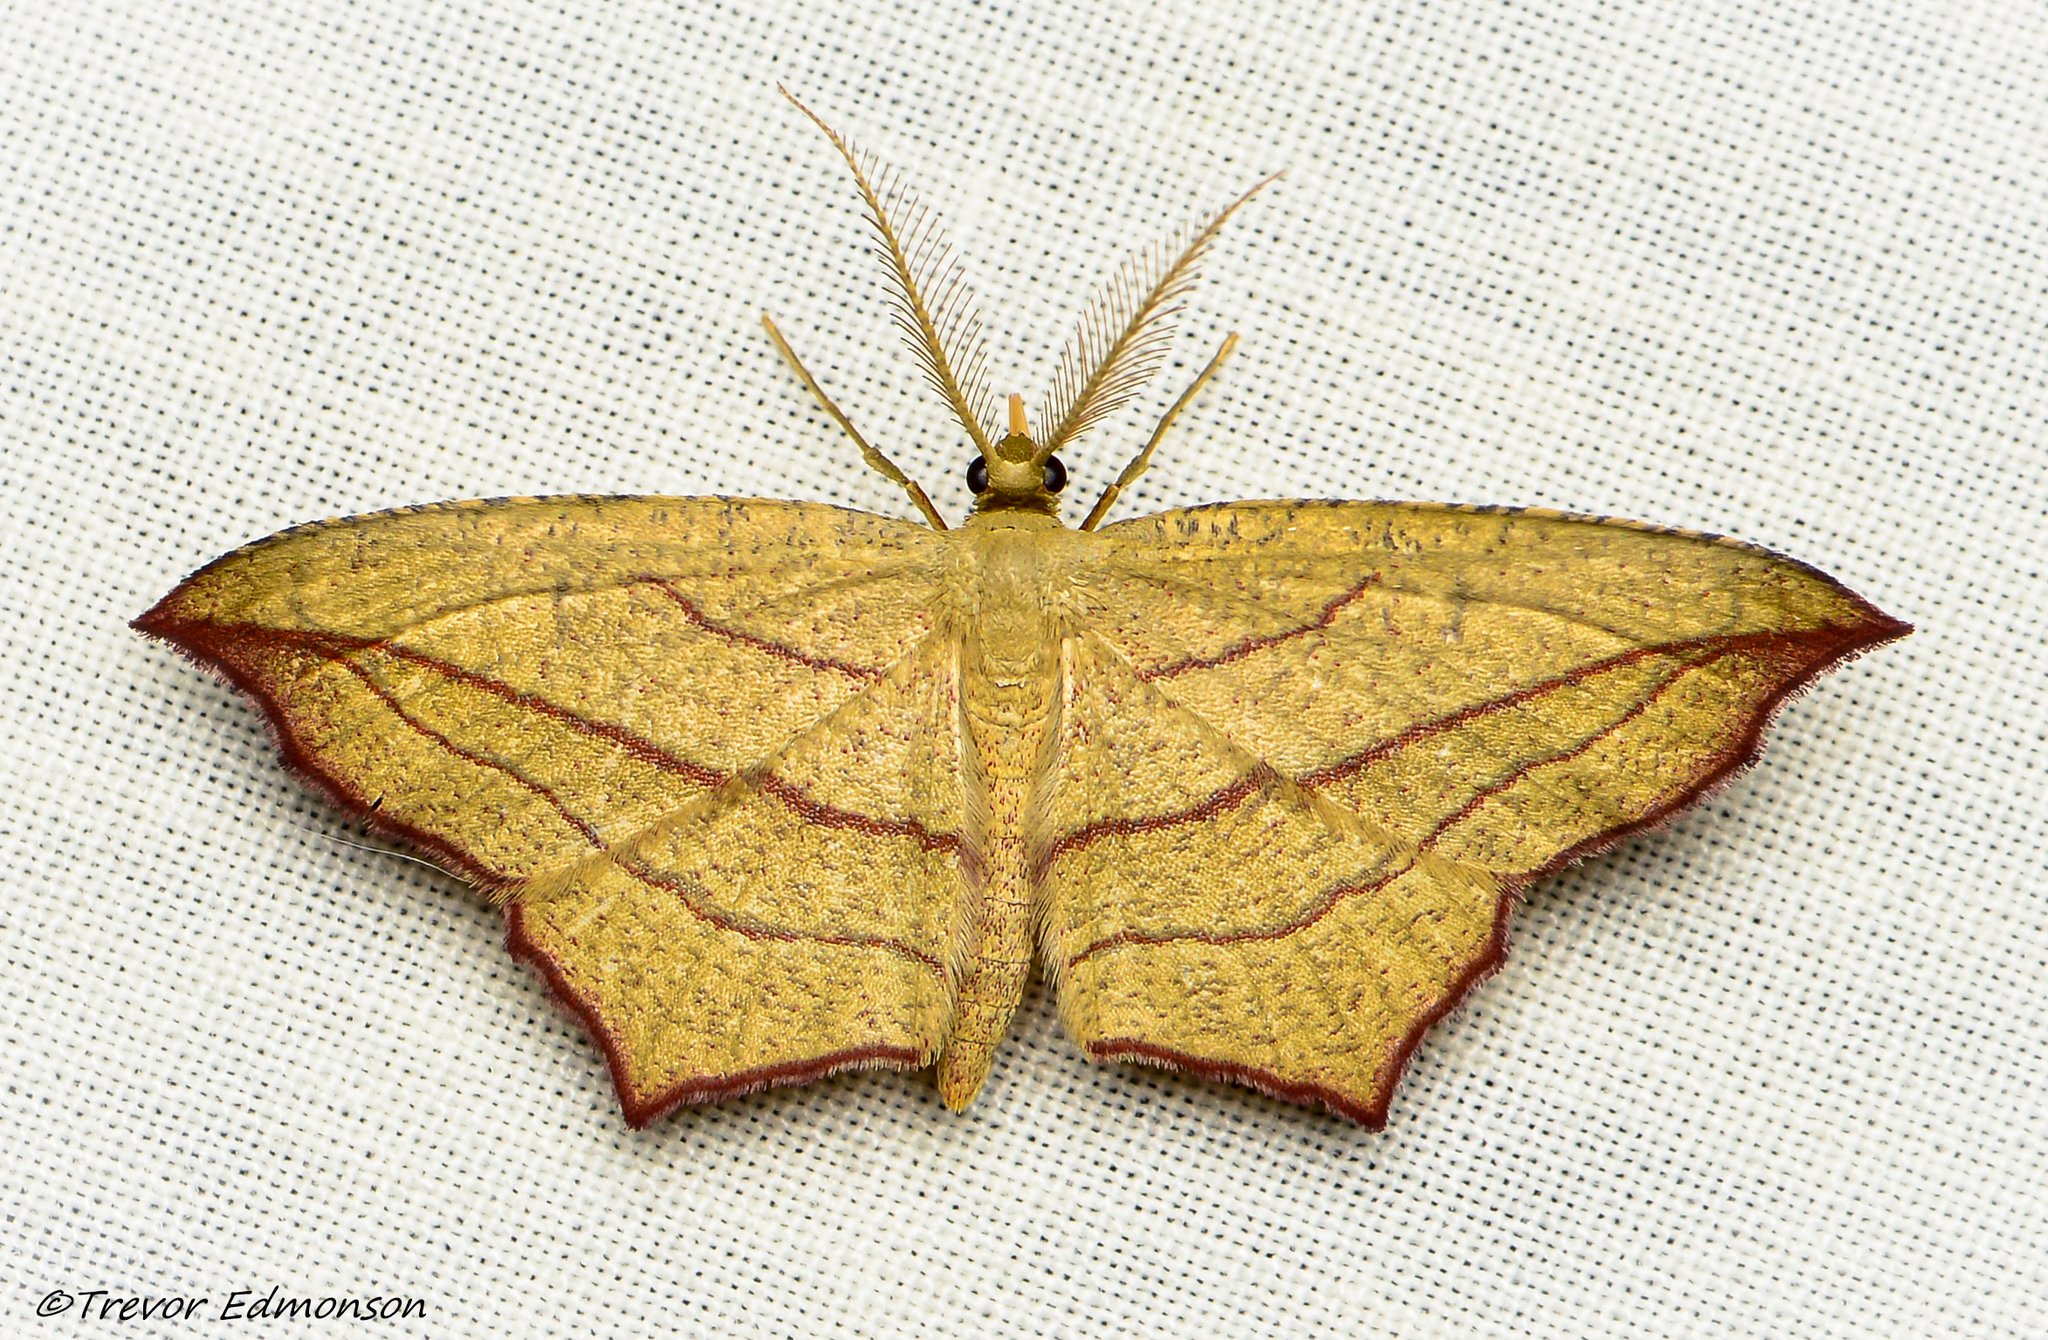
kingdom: Animalia
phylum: Arthropoda
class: Insecta
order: Lepidoptera
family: Geometridae
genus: Timandra
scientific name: Timandra amaturaria
